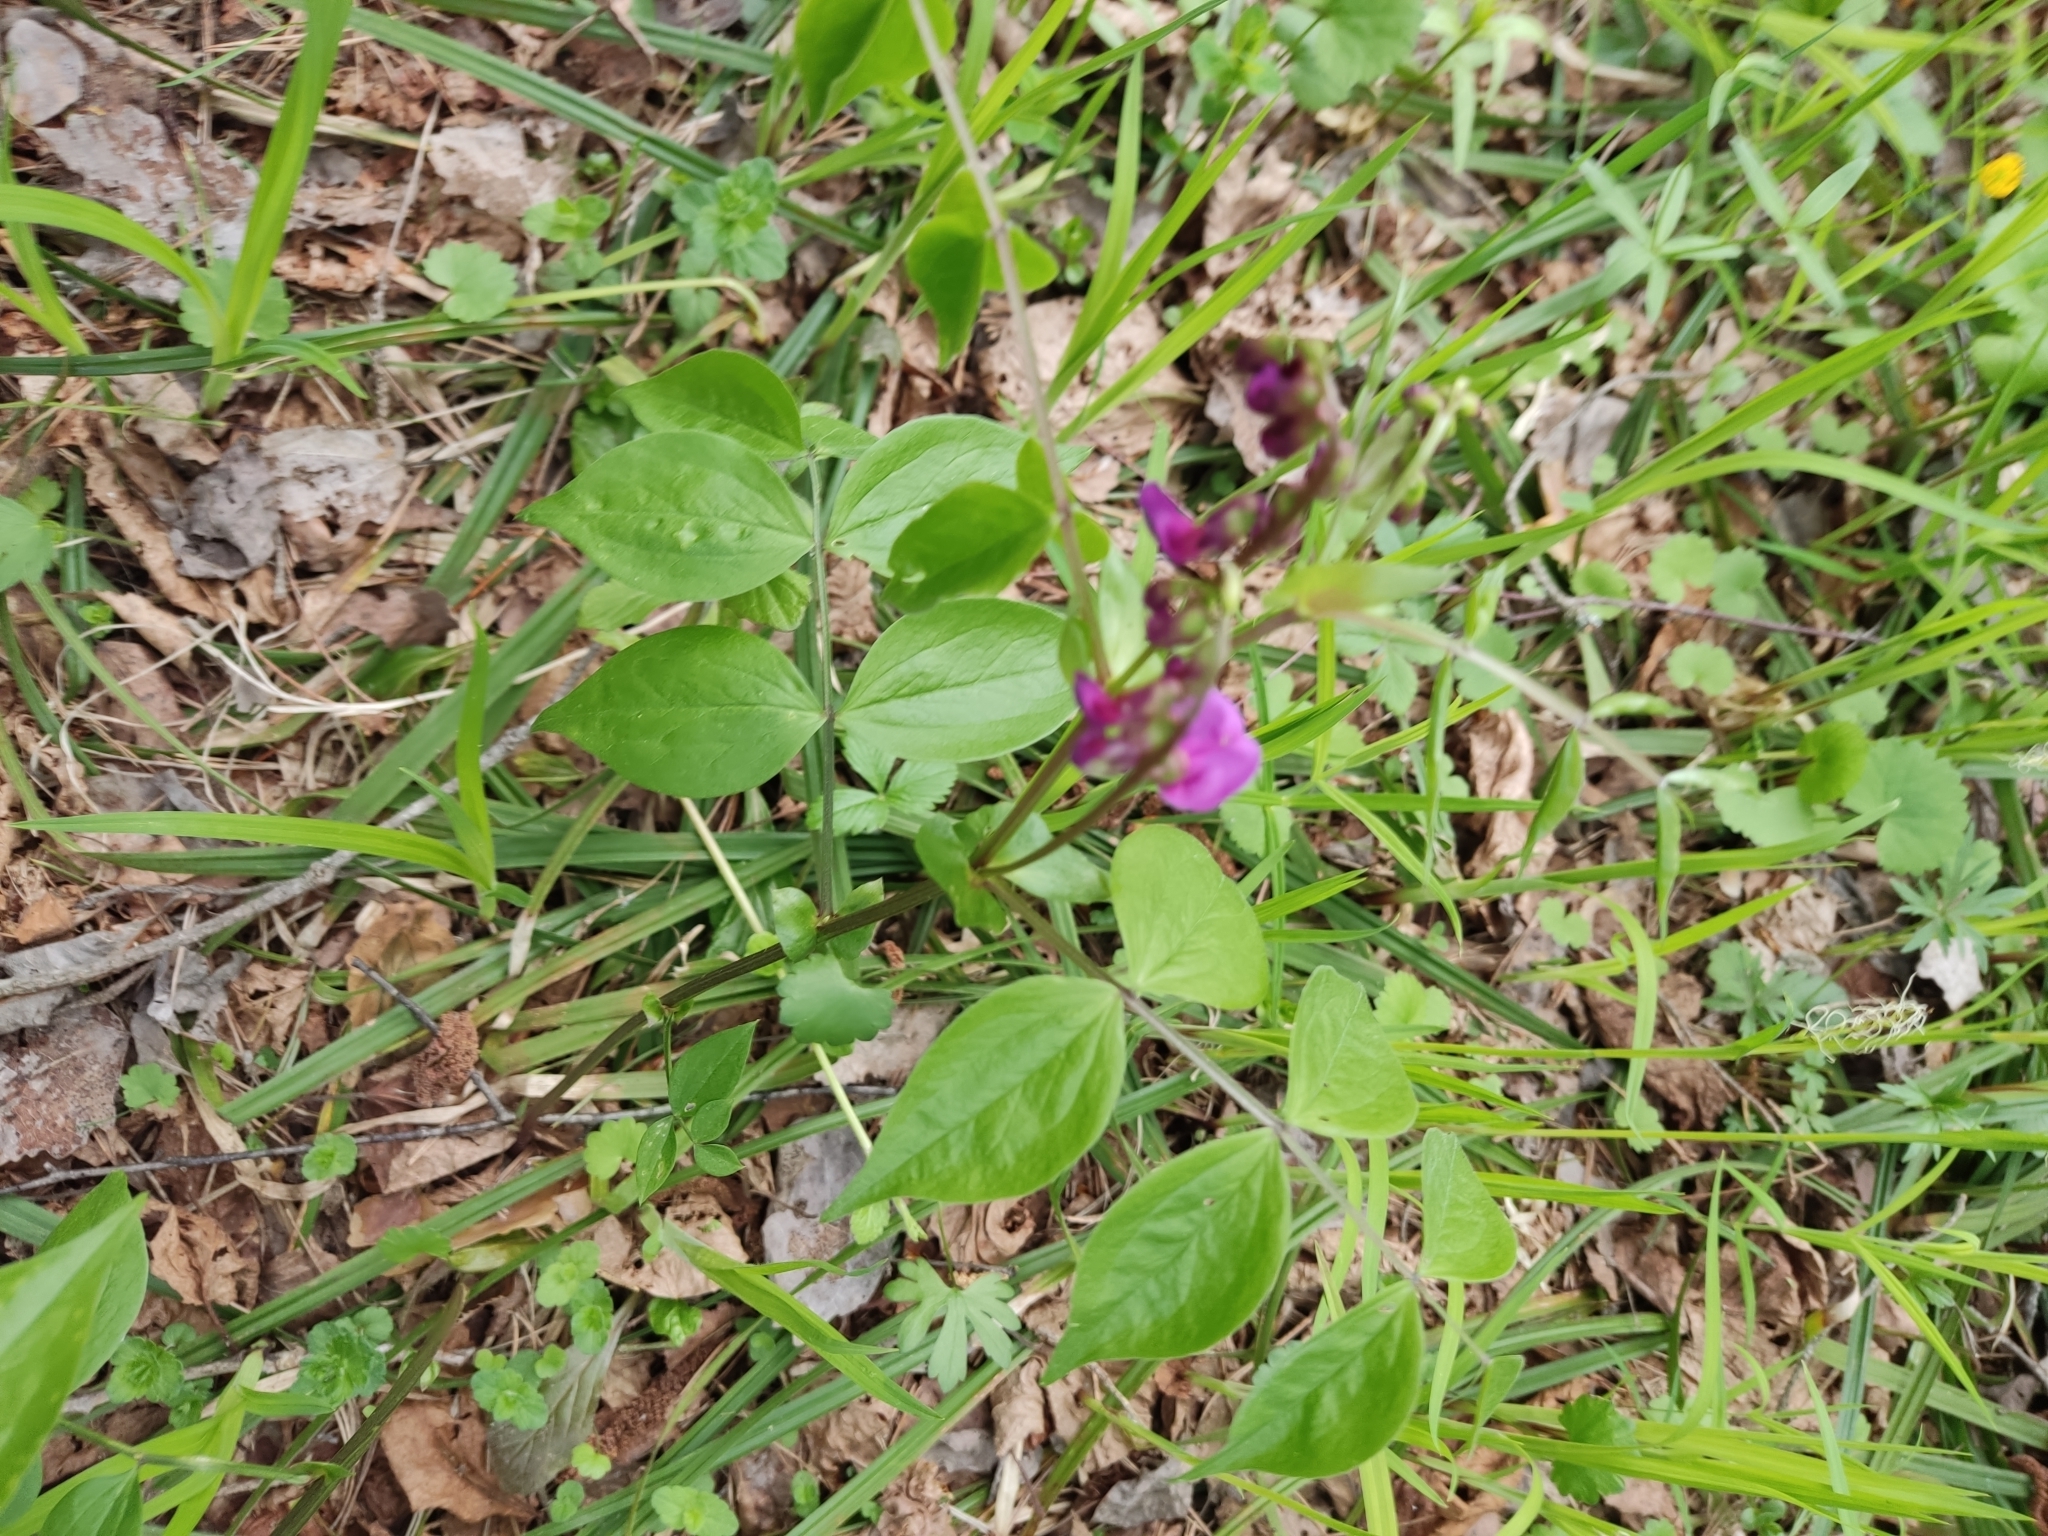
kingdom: Plantae
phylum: Tracheophyta
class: Magnoliopsida
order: Fabales
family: Fabaceae
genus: Lathyrus
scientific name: Lathyrus vernus
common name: Spring pea
